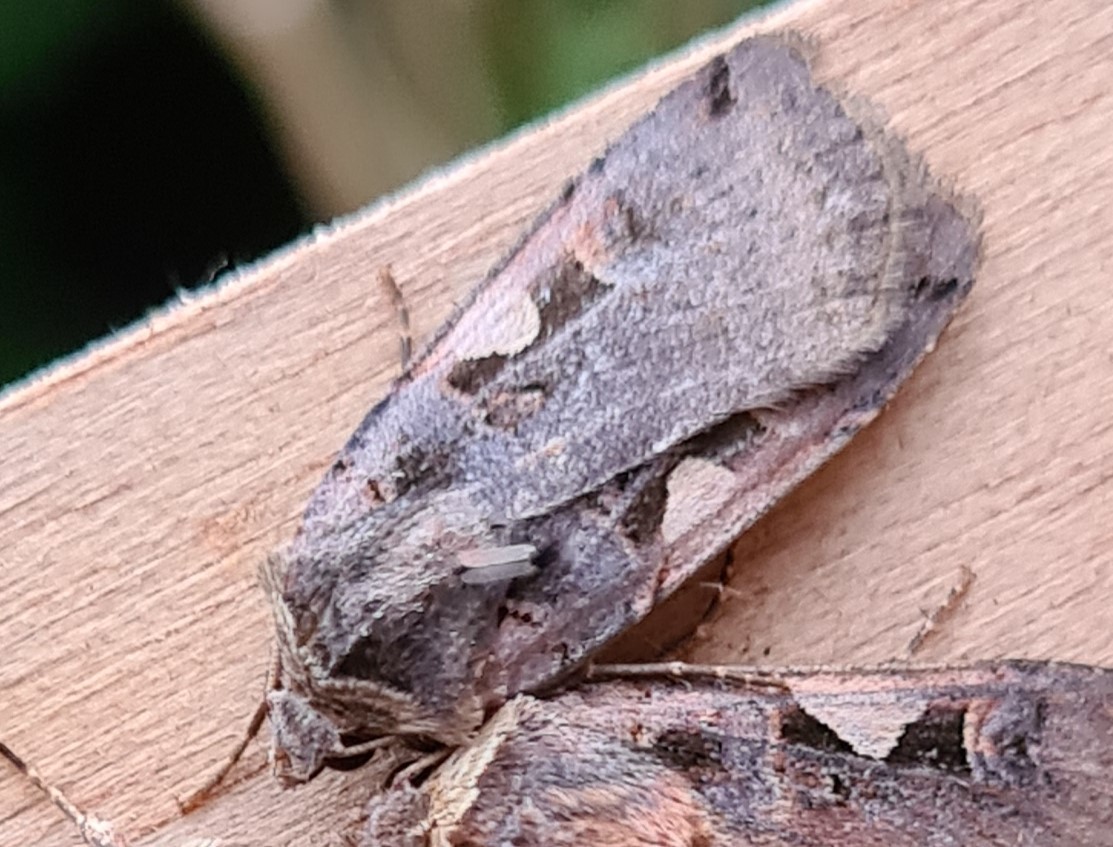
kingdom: Animalia
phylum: Arthropoda
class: Insecta
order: Lepidoptera
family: Noctuidae
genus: Xestia
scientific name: Xestia c-nigrum
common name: Setaceous hebrew character
